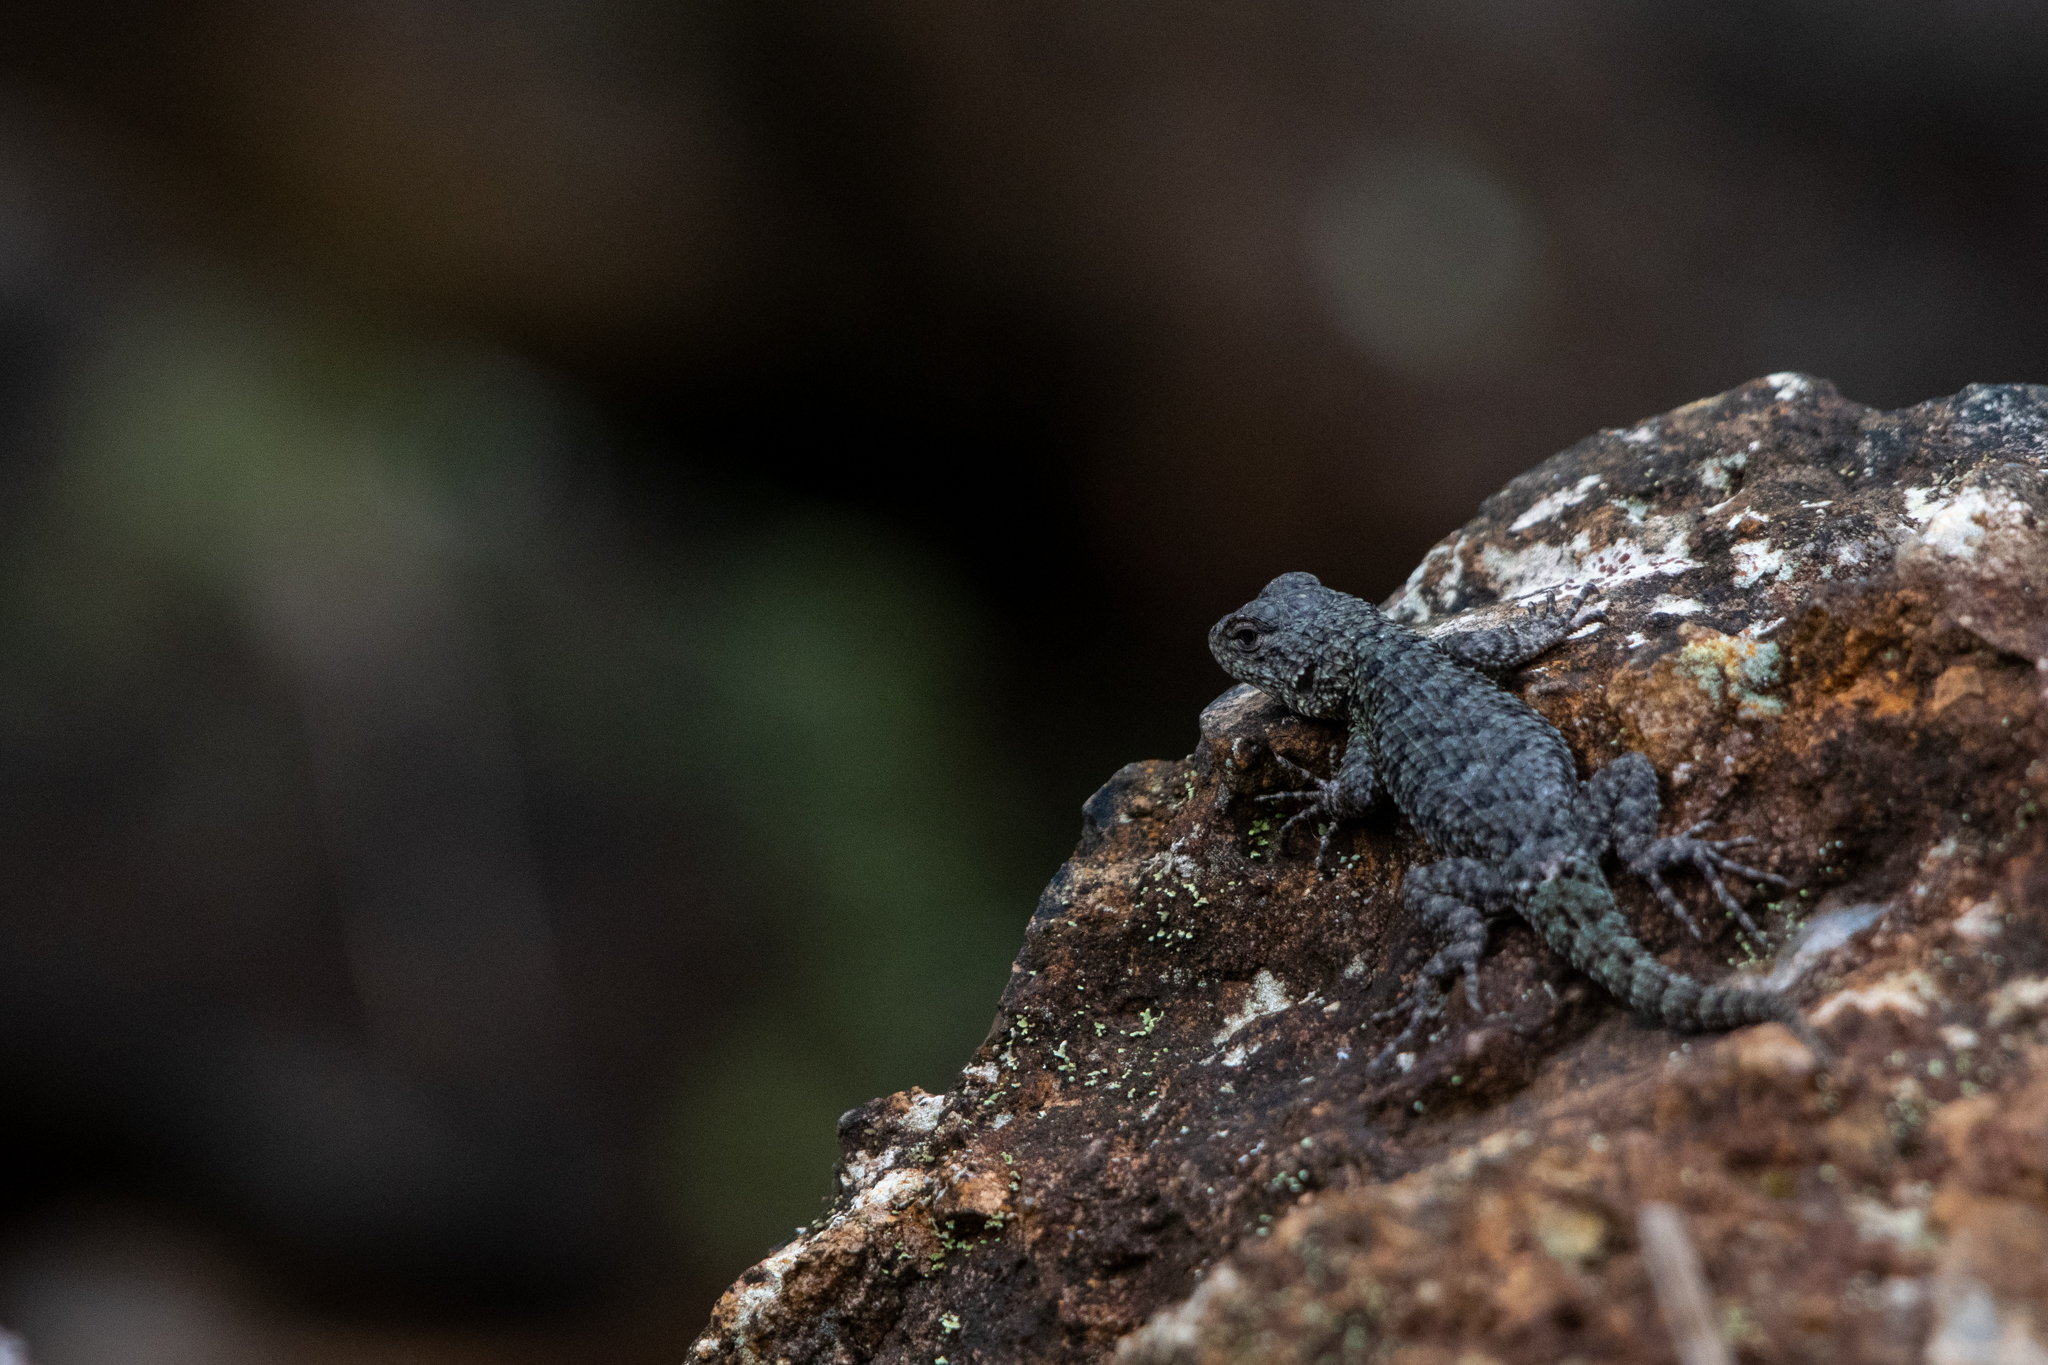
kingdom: Animalia
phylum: Chordata
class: Squamata
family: Phrynosomatidae
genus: Sceloporus
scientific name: Sceloporus hondurensis
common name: Honduran spiny lizard
